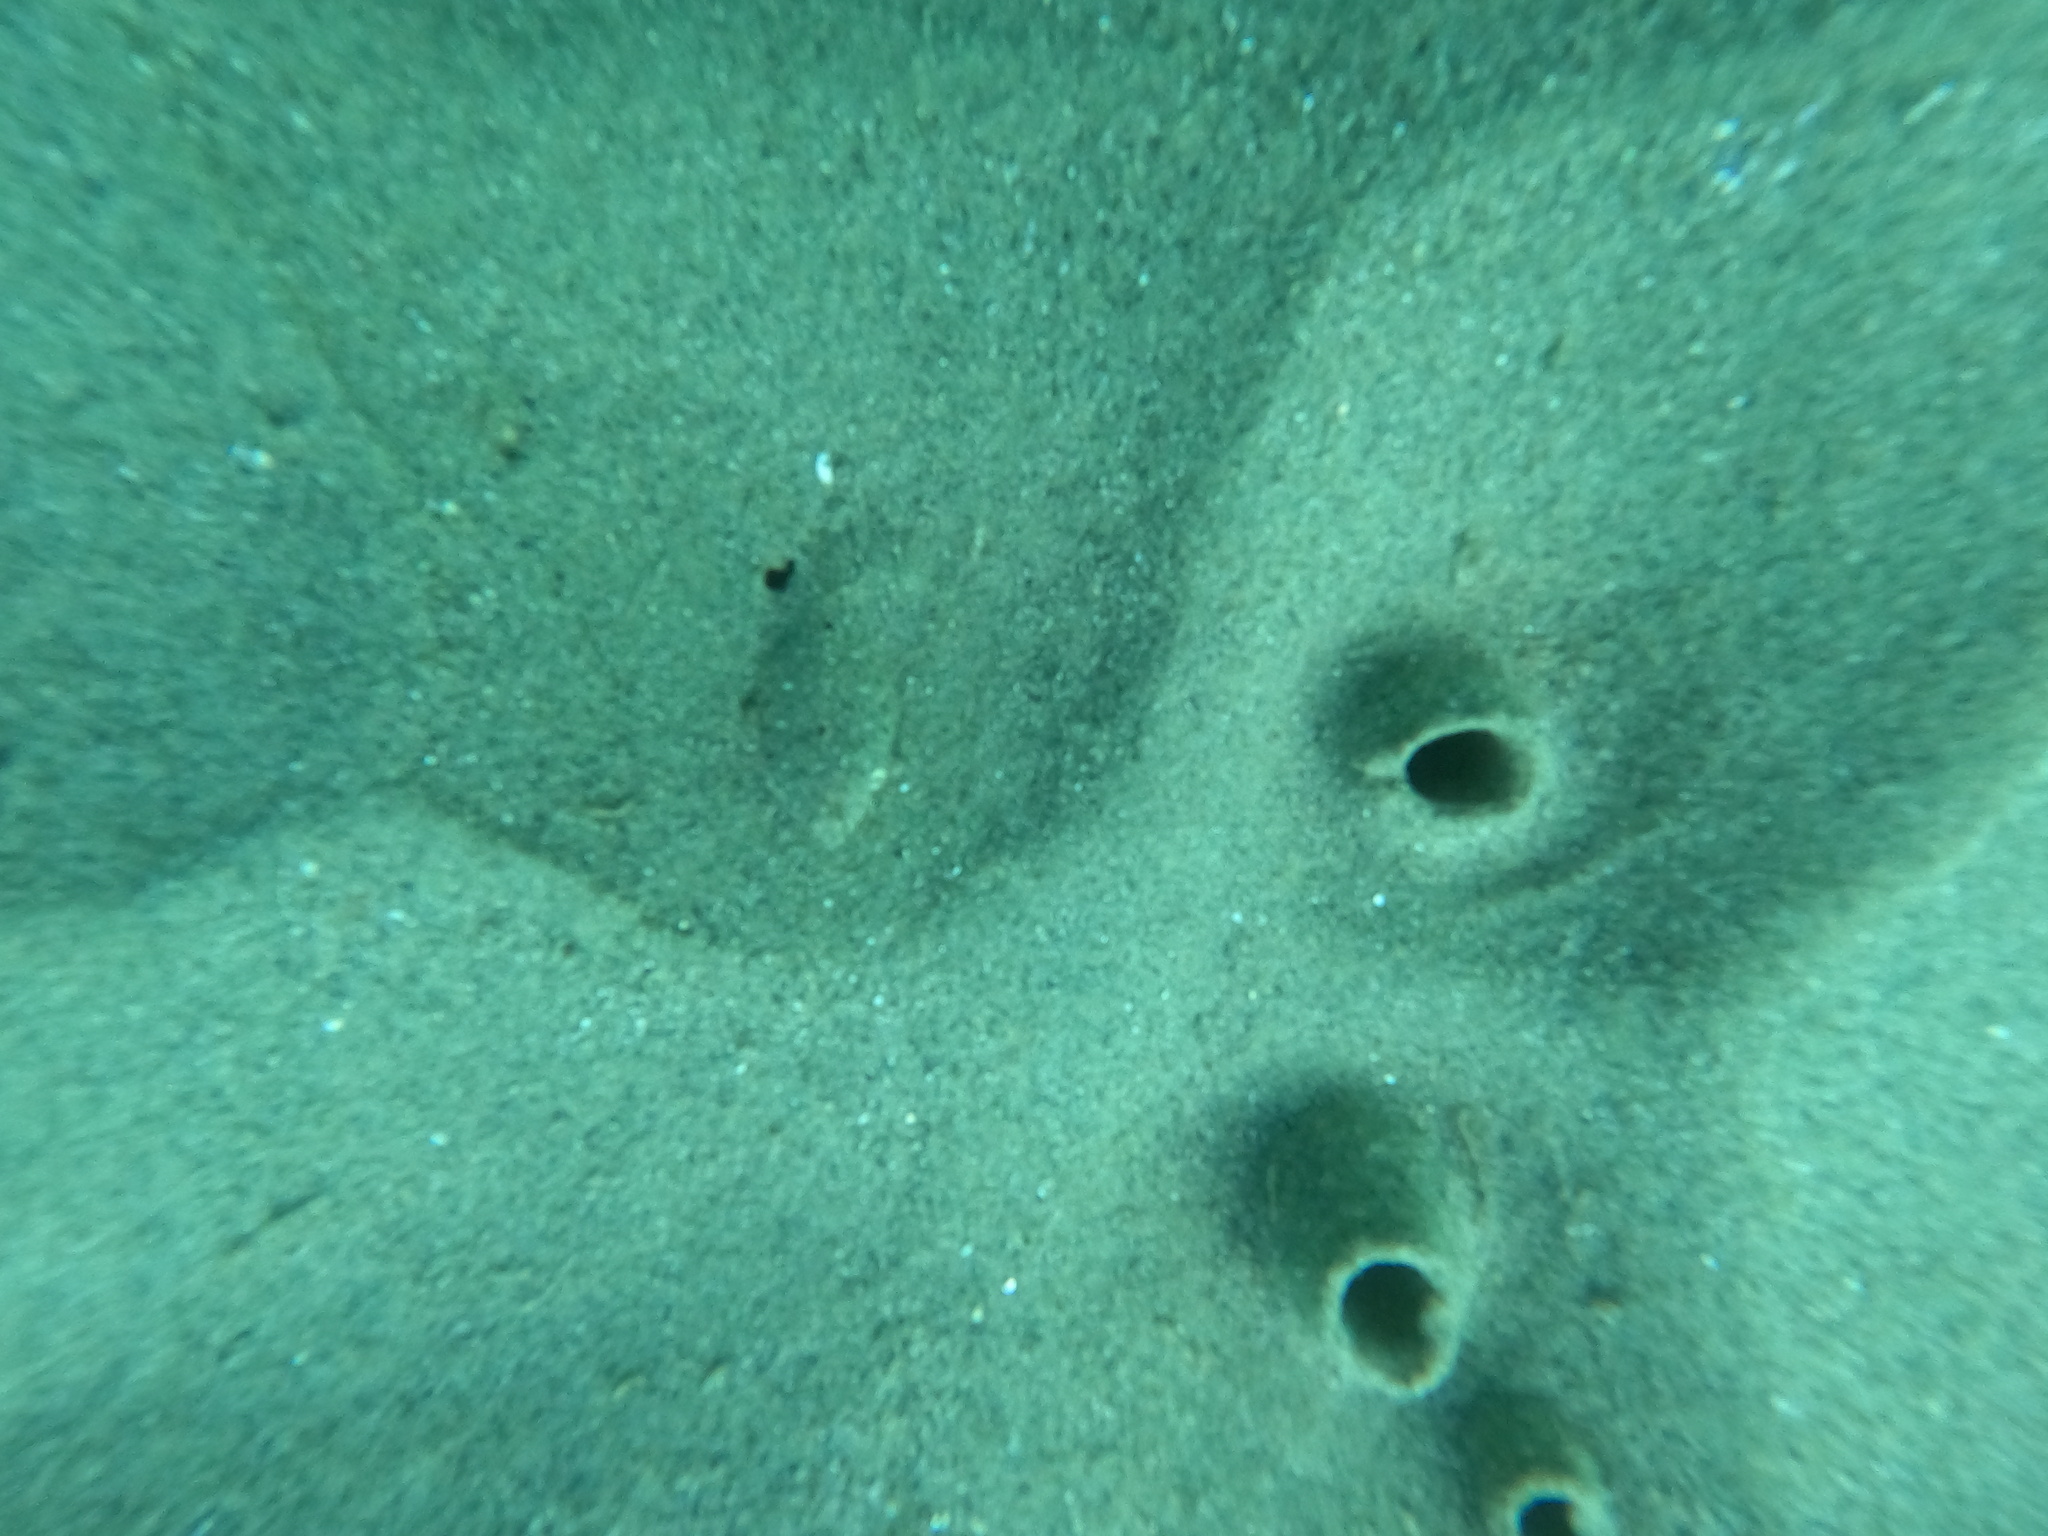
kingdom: Animalia
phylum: Chordata
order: Pleuronectiformes
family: Paralichthyidae
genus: Citharichthys
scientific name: Citharichthys stigmaeus
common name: Speckled sanddab
